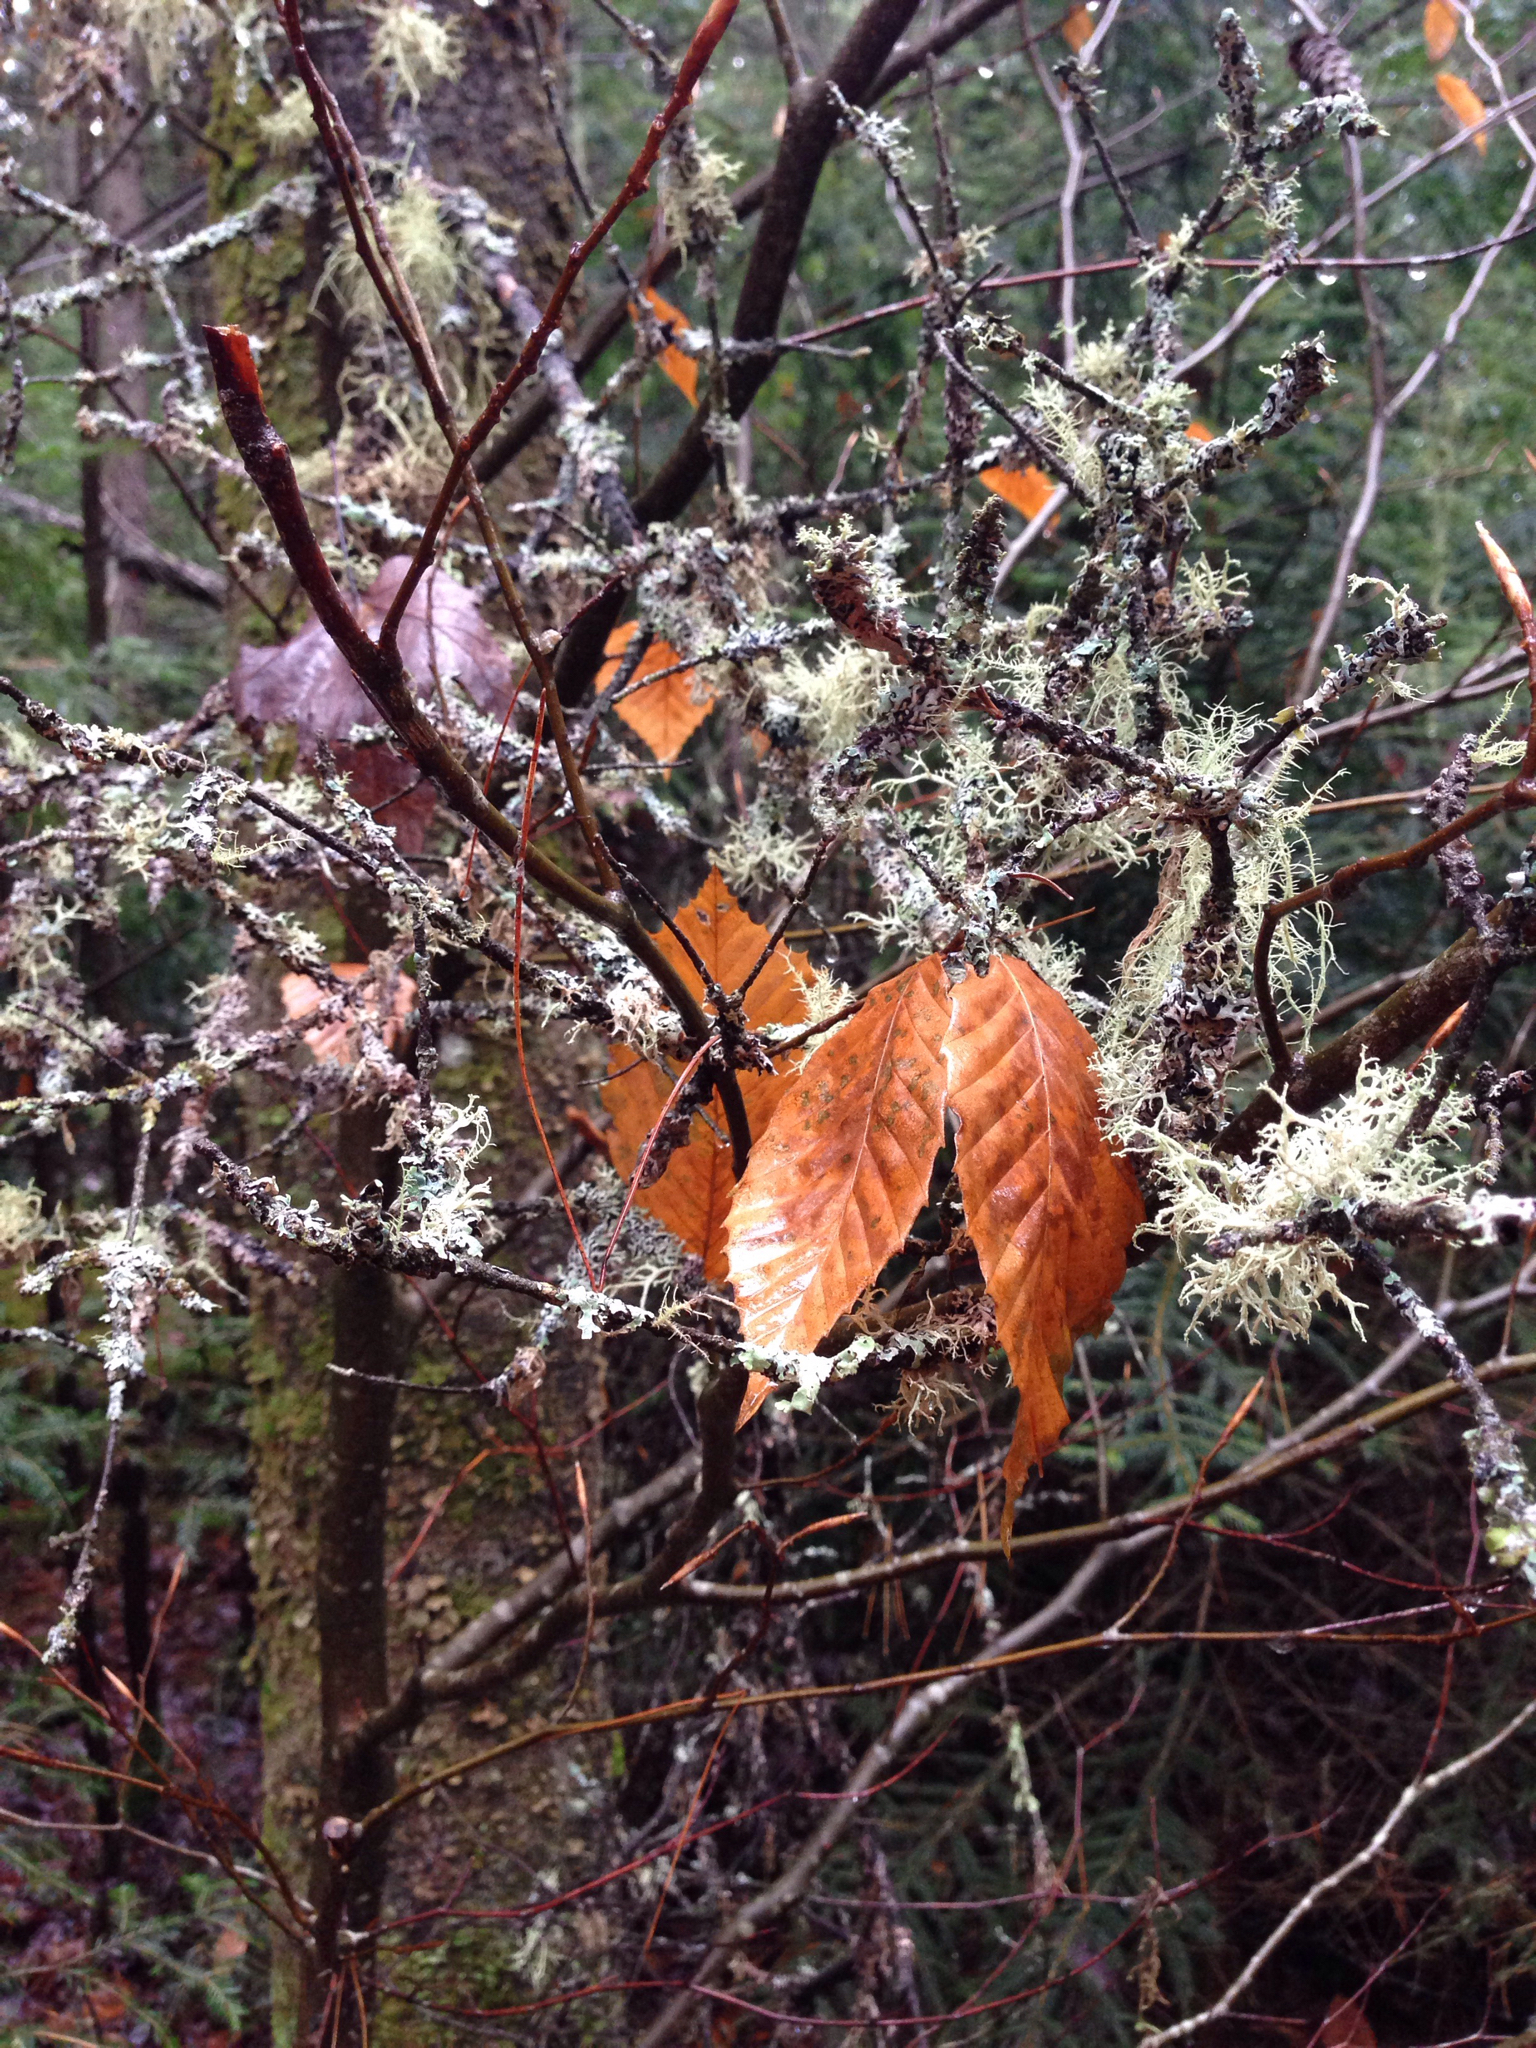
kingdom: Plantae
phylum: Tracheophyta
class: Magnoliopsida
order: Fagales
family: Fagaceae
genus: Fagus
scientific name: Fagus grandifolia
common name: American beech
